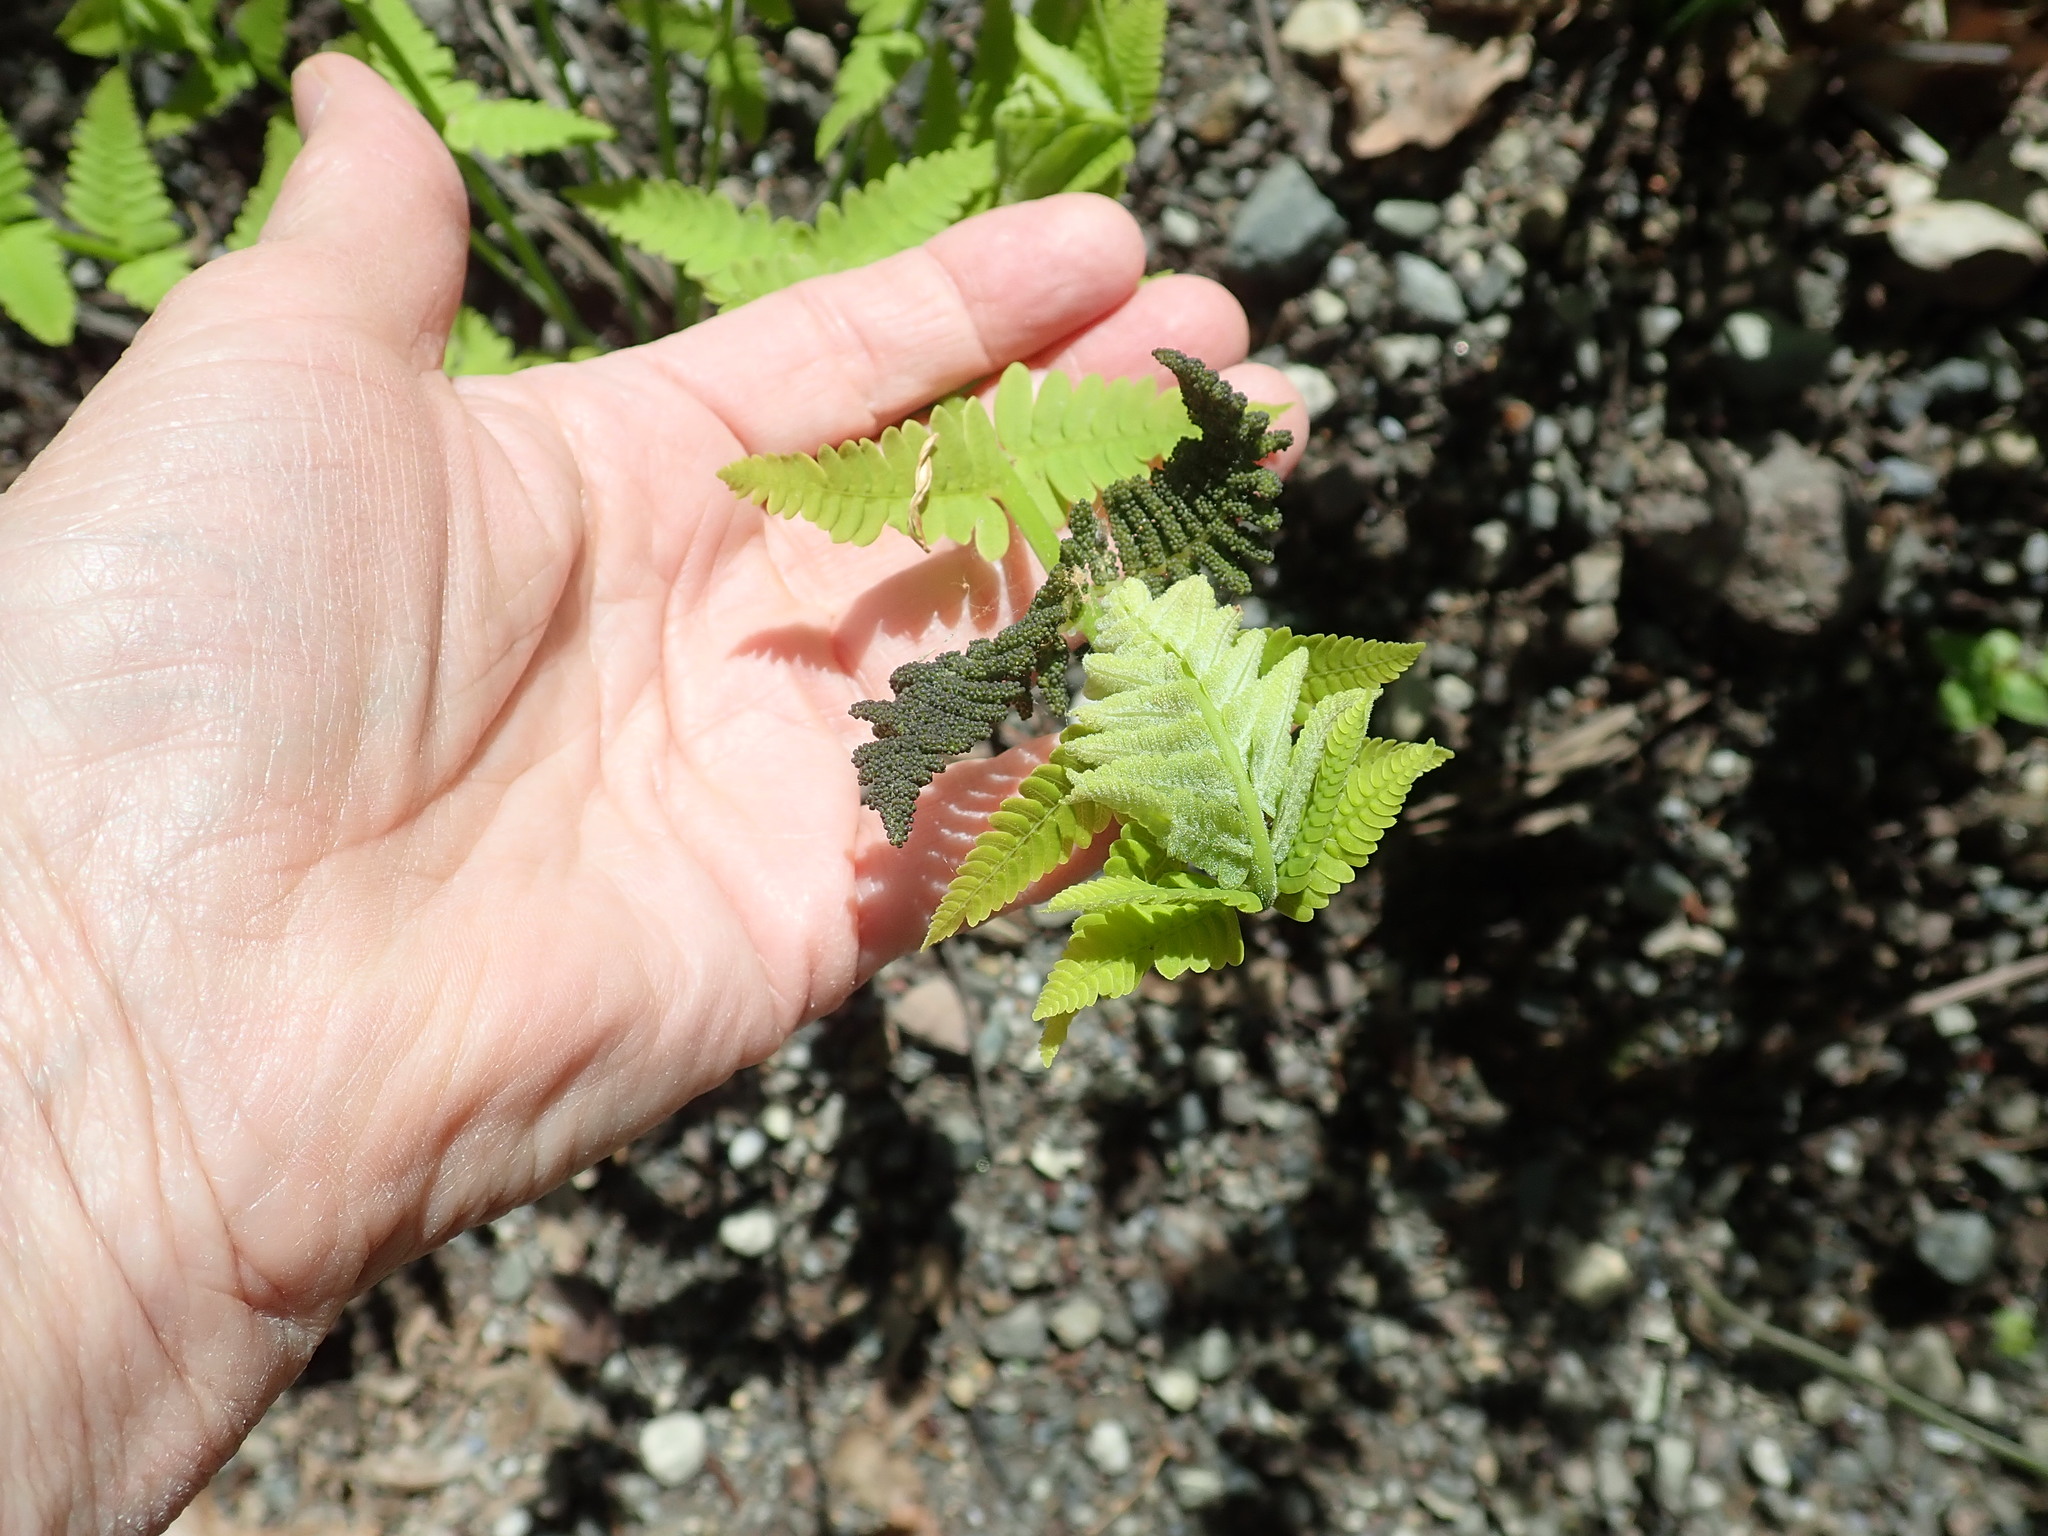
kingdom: Plantae
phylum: Tracheophyta
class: Polypodiopsida
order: Osmundales
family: Osmundaceae
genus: Claytosmunda
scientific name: Claytosmunda claytoniana
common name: Clayton's fern
